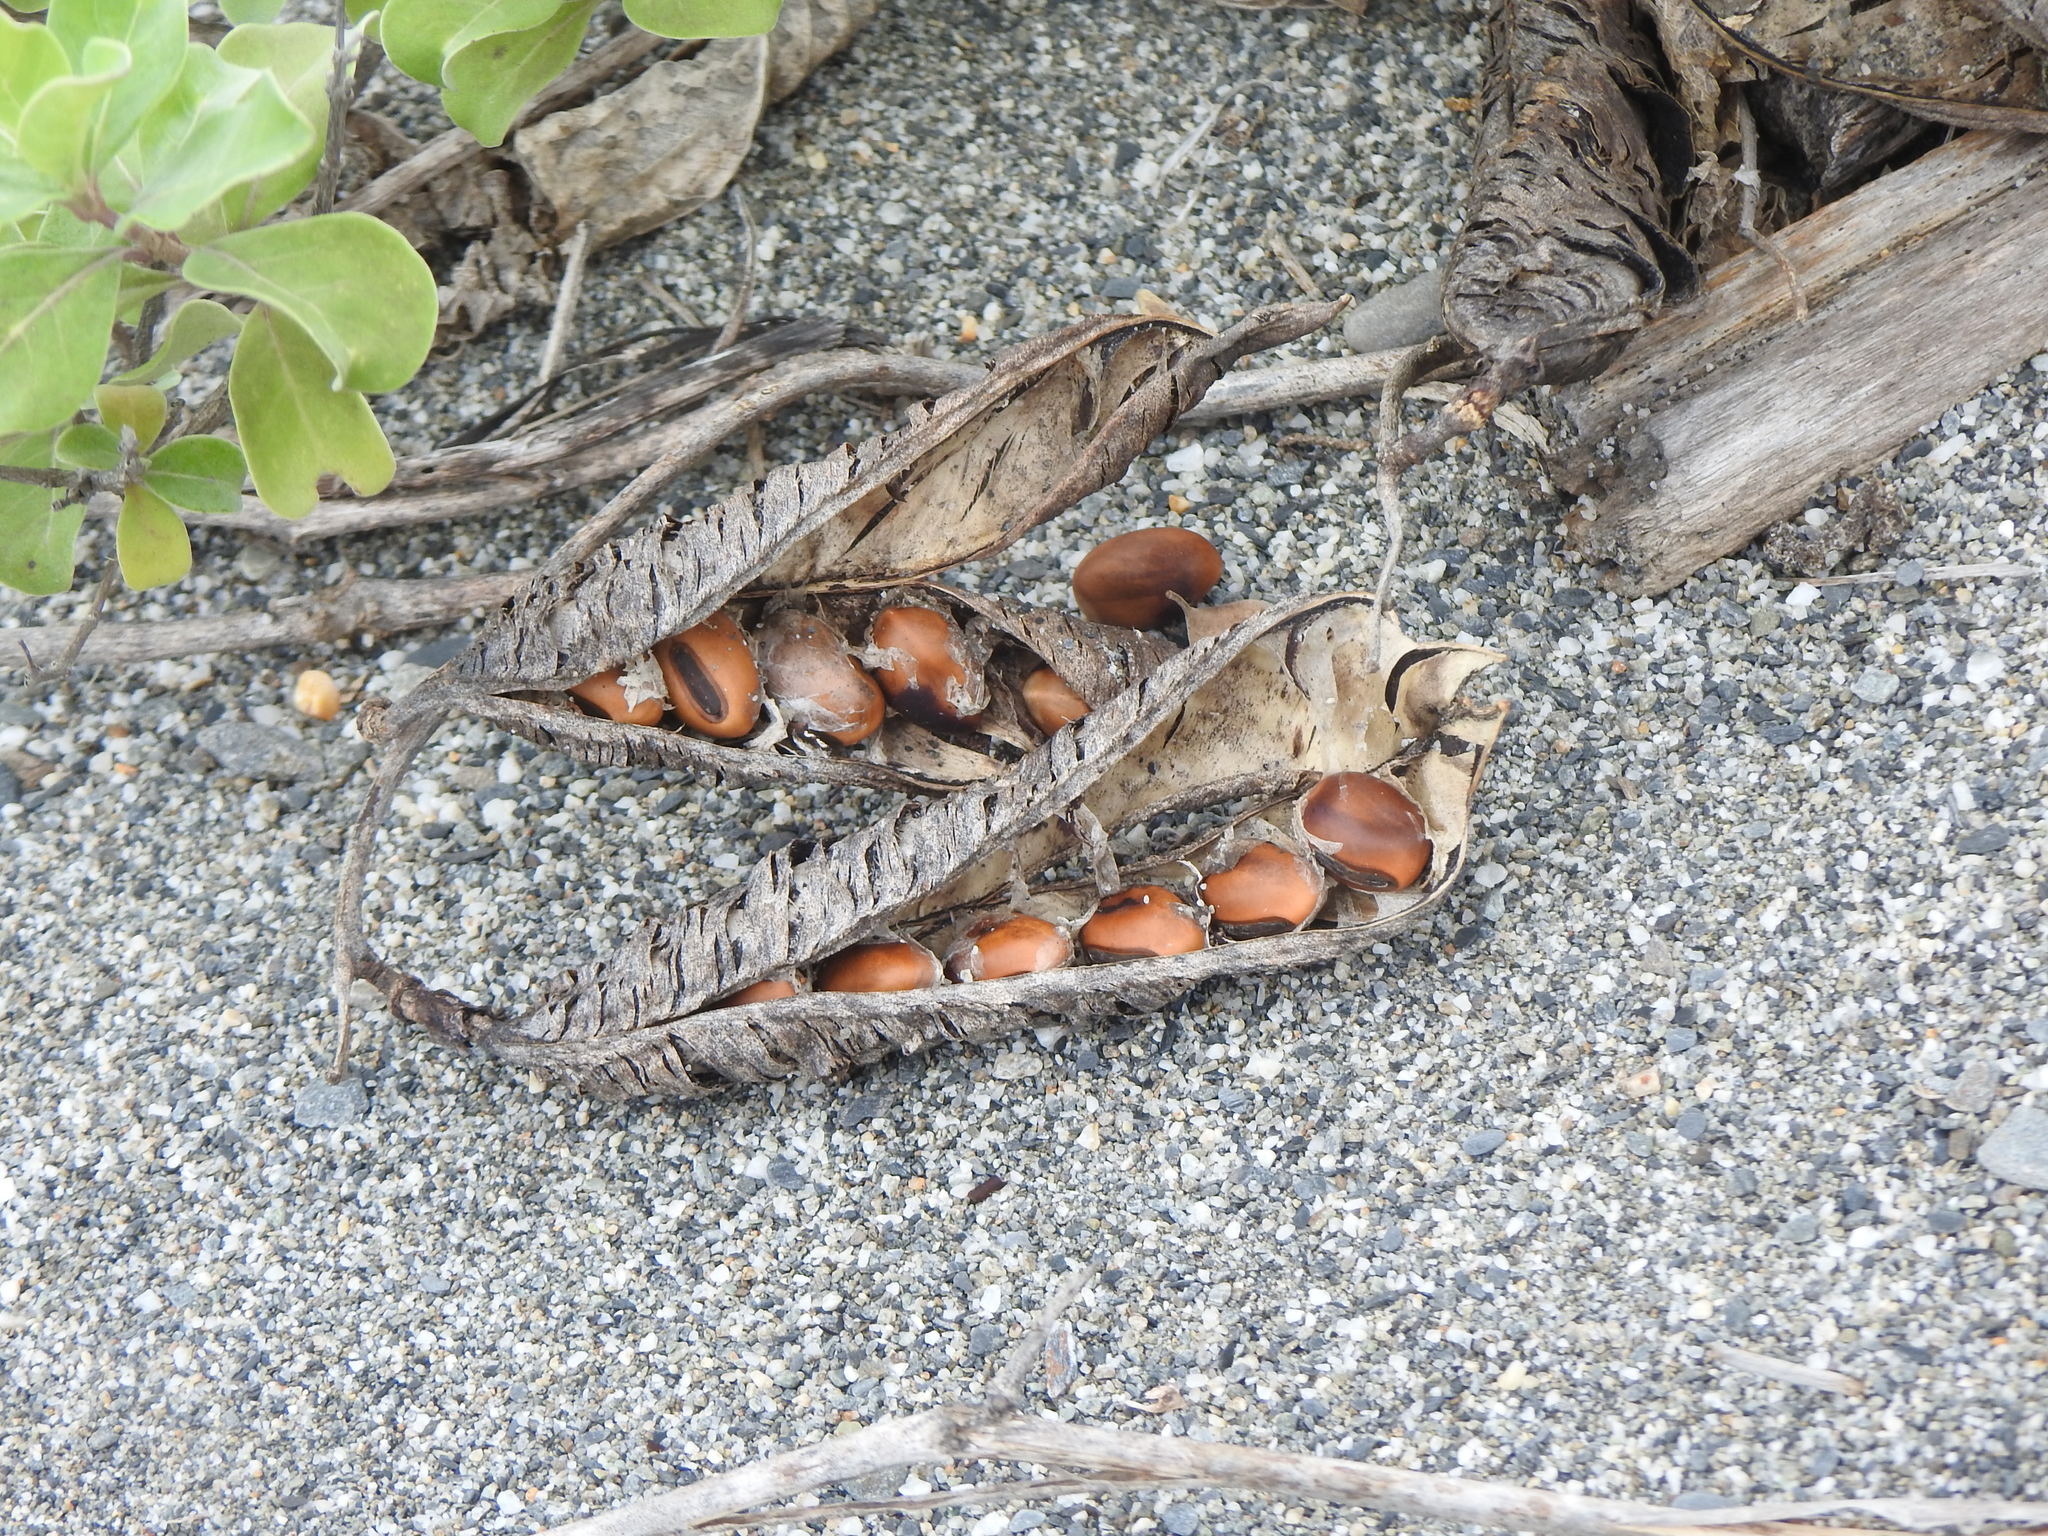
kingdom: Plantae
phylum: Tracheophyta
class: Magnoliopsida
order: Fabales
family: Fabaceae
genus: Canavalia
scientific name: Canavalia rosea
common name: Beach-bean
